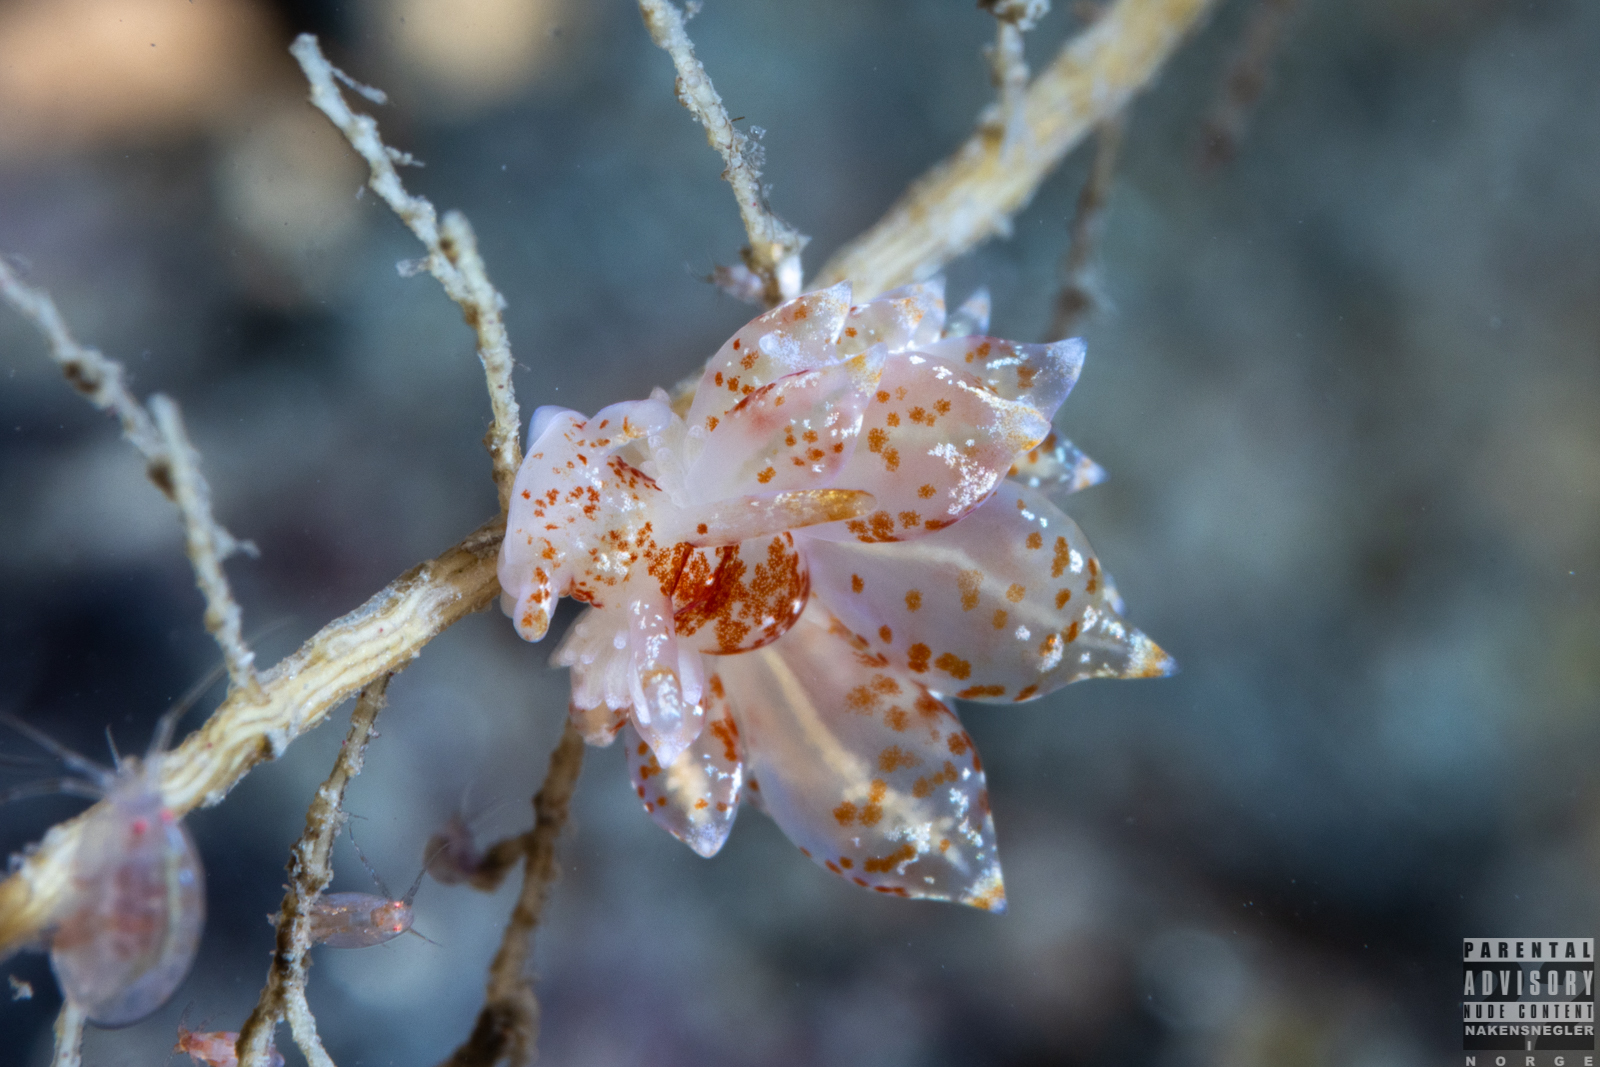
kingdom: Animalia
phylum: Mollusca
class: Gastropoda
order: Nudibranchia
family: Eubranchidae
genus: Amphorina
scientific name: Amphorina pallida
